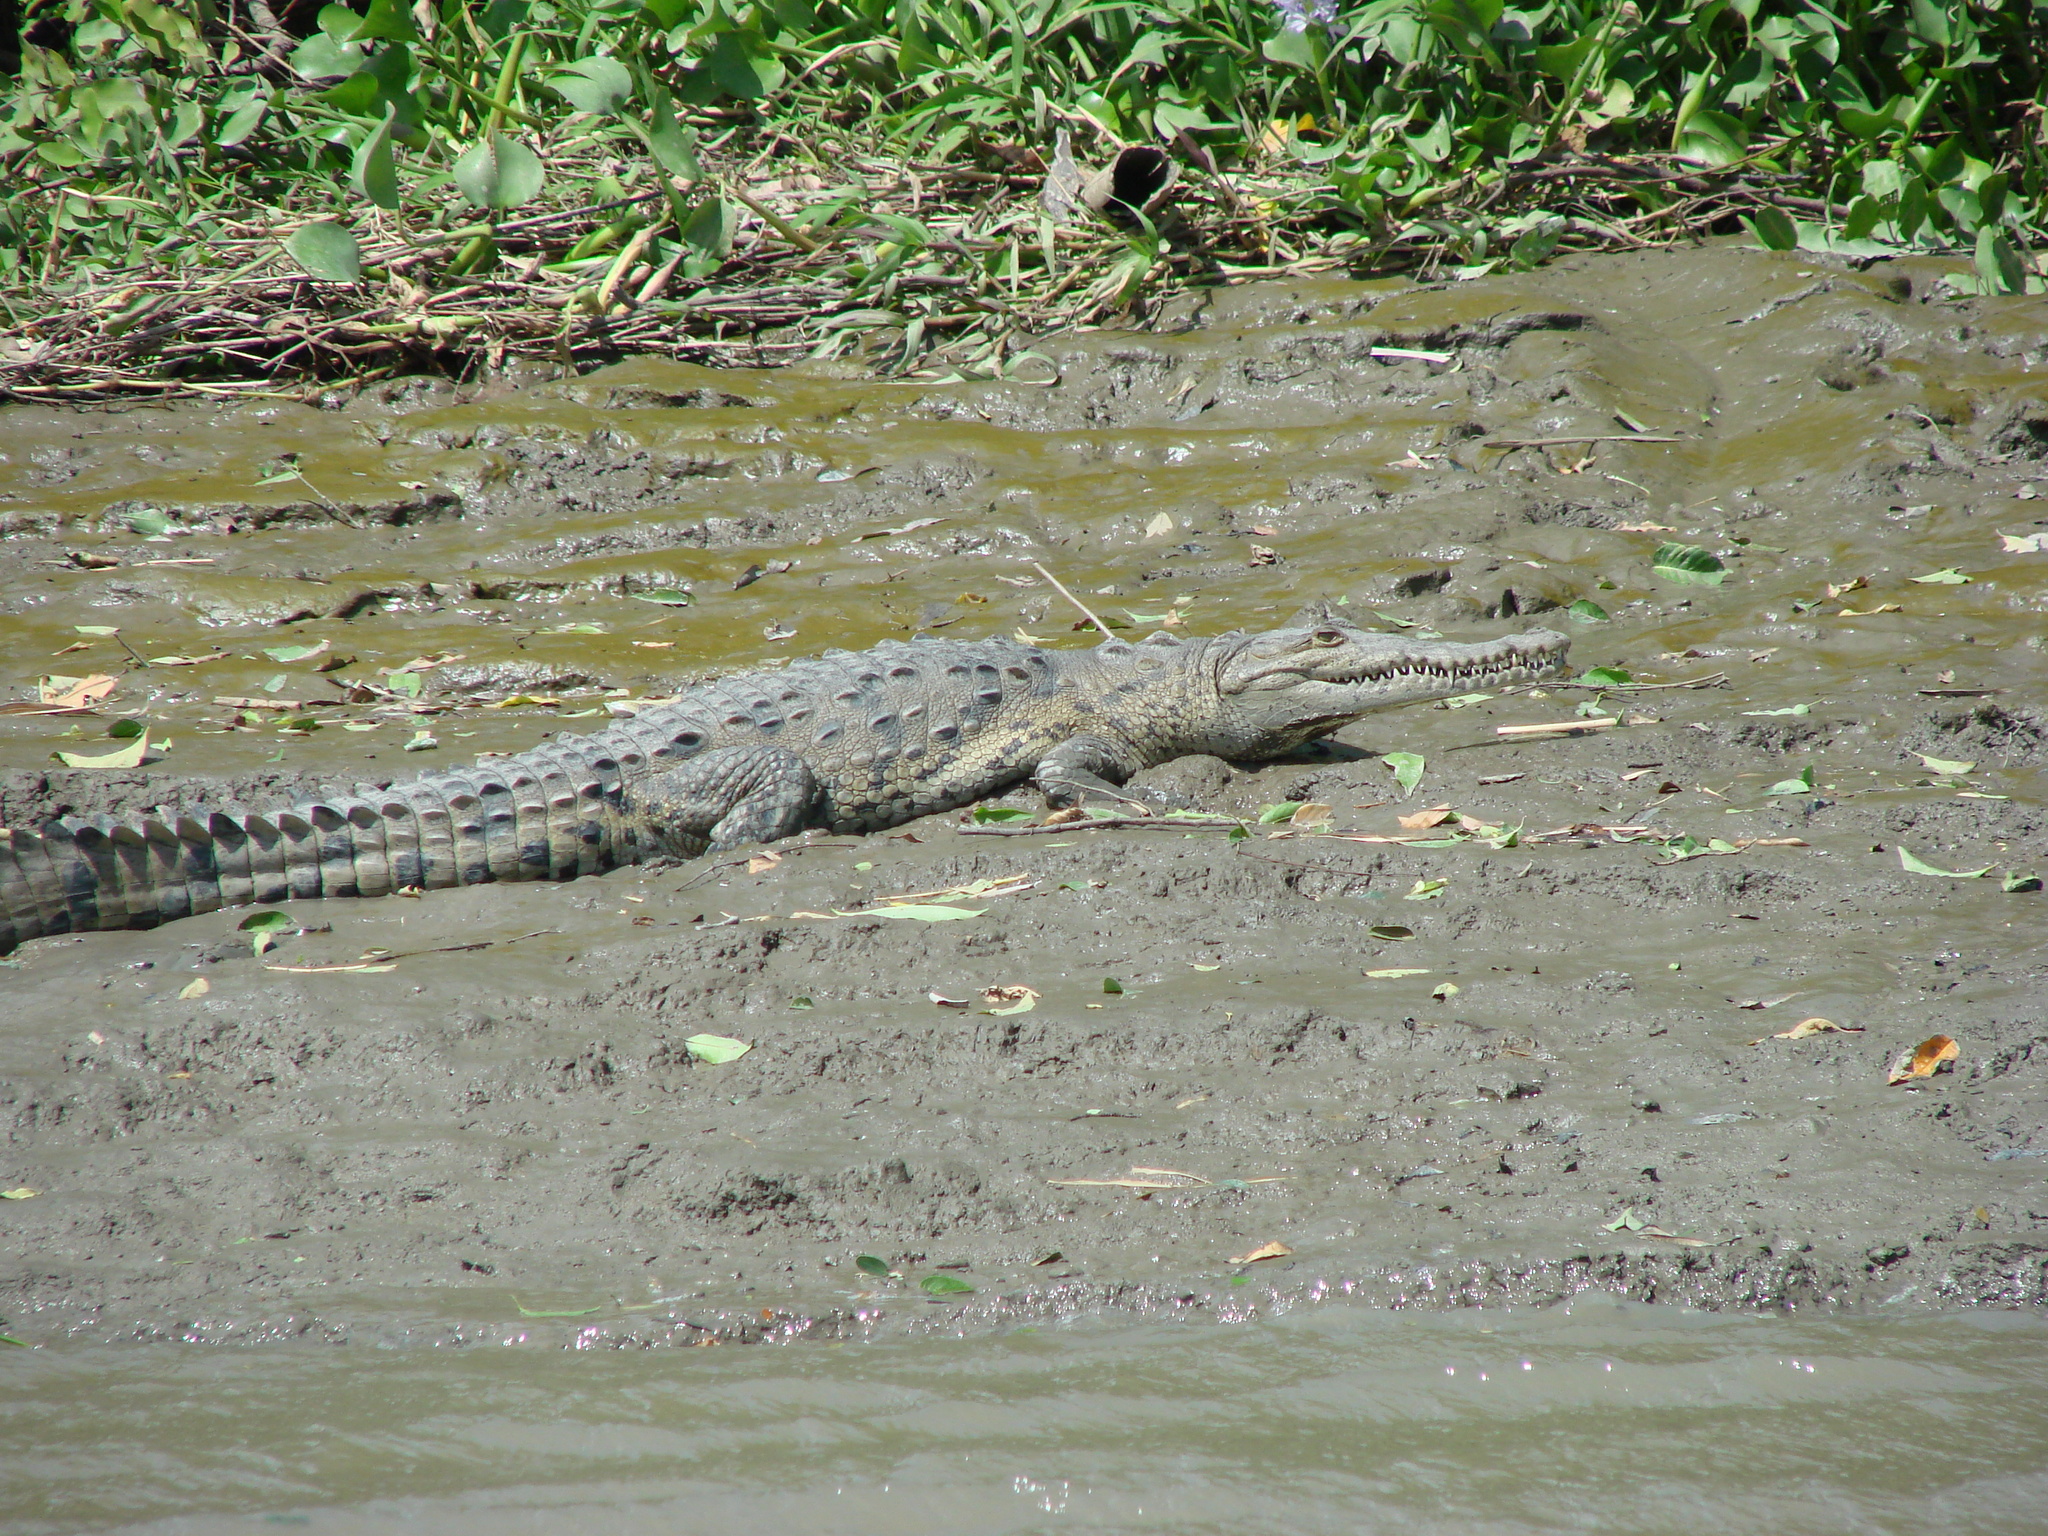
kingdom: Animalia
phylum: Chordata
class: Crocodylia
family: Crocodylidae
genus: Crocodylus
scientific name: Crocodylus acutus
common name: American crocodile
